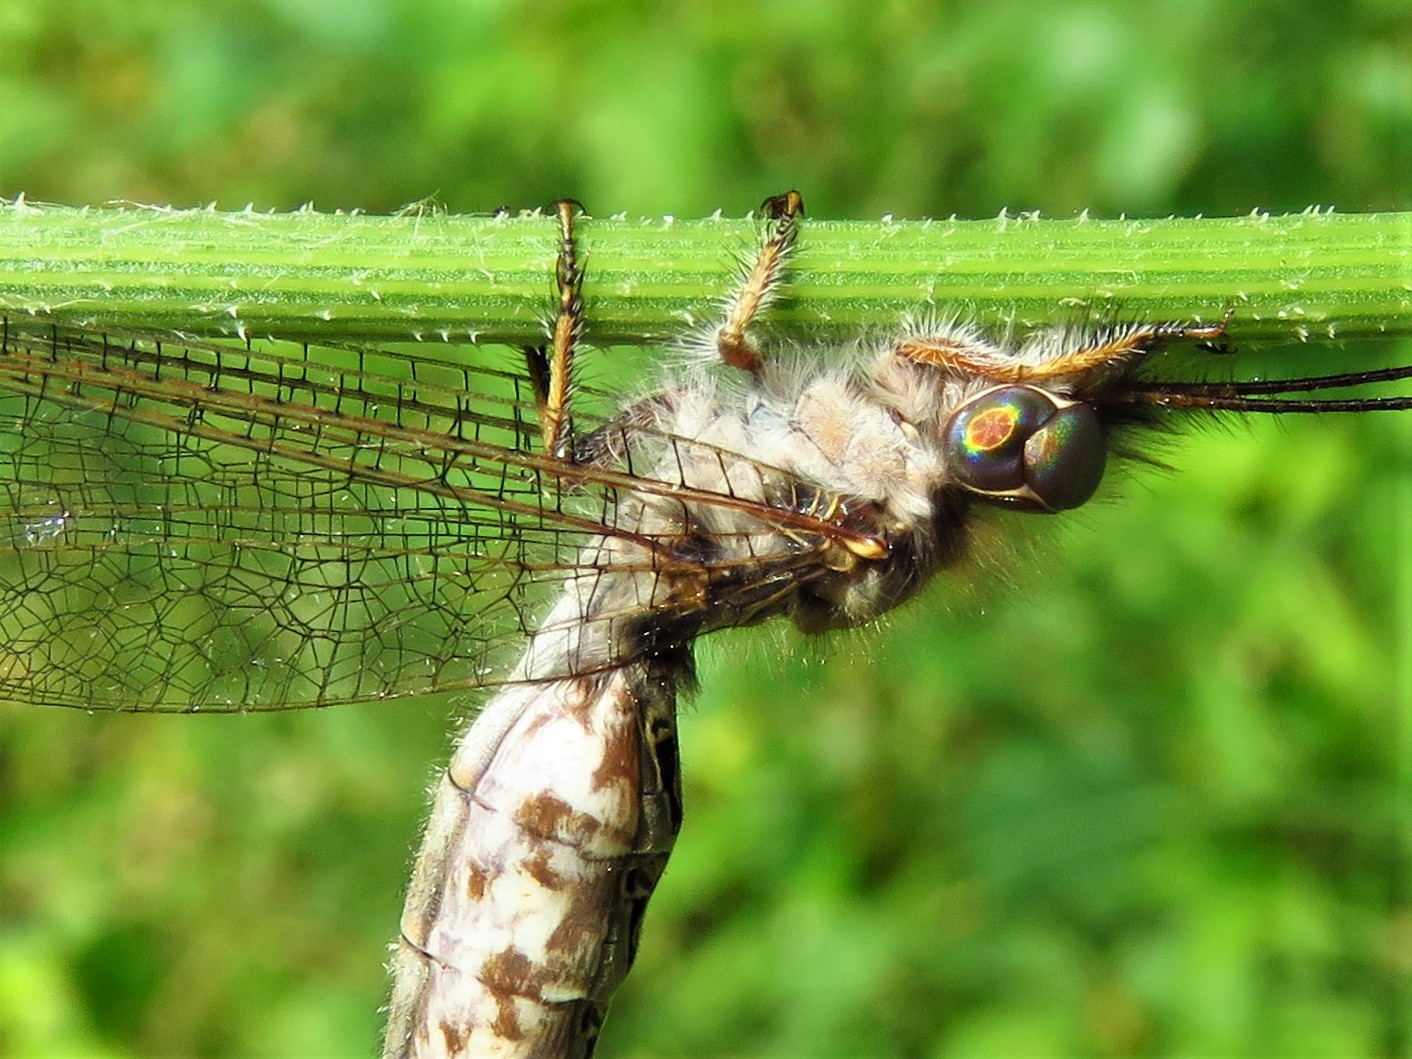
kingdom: Animalia
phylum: Arthropoda
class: Insecta
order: Neuroptera
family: Ascalaphidae
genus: Ululodes
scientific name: Ululodes macleayanus
